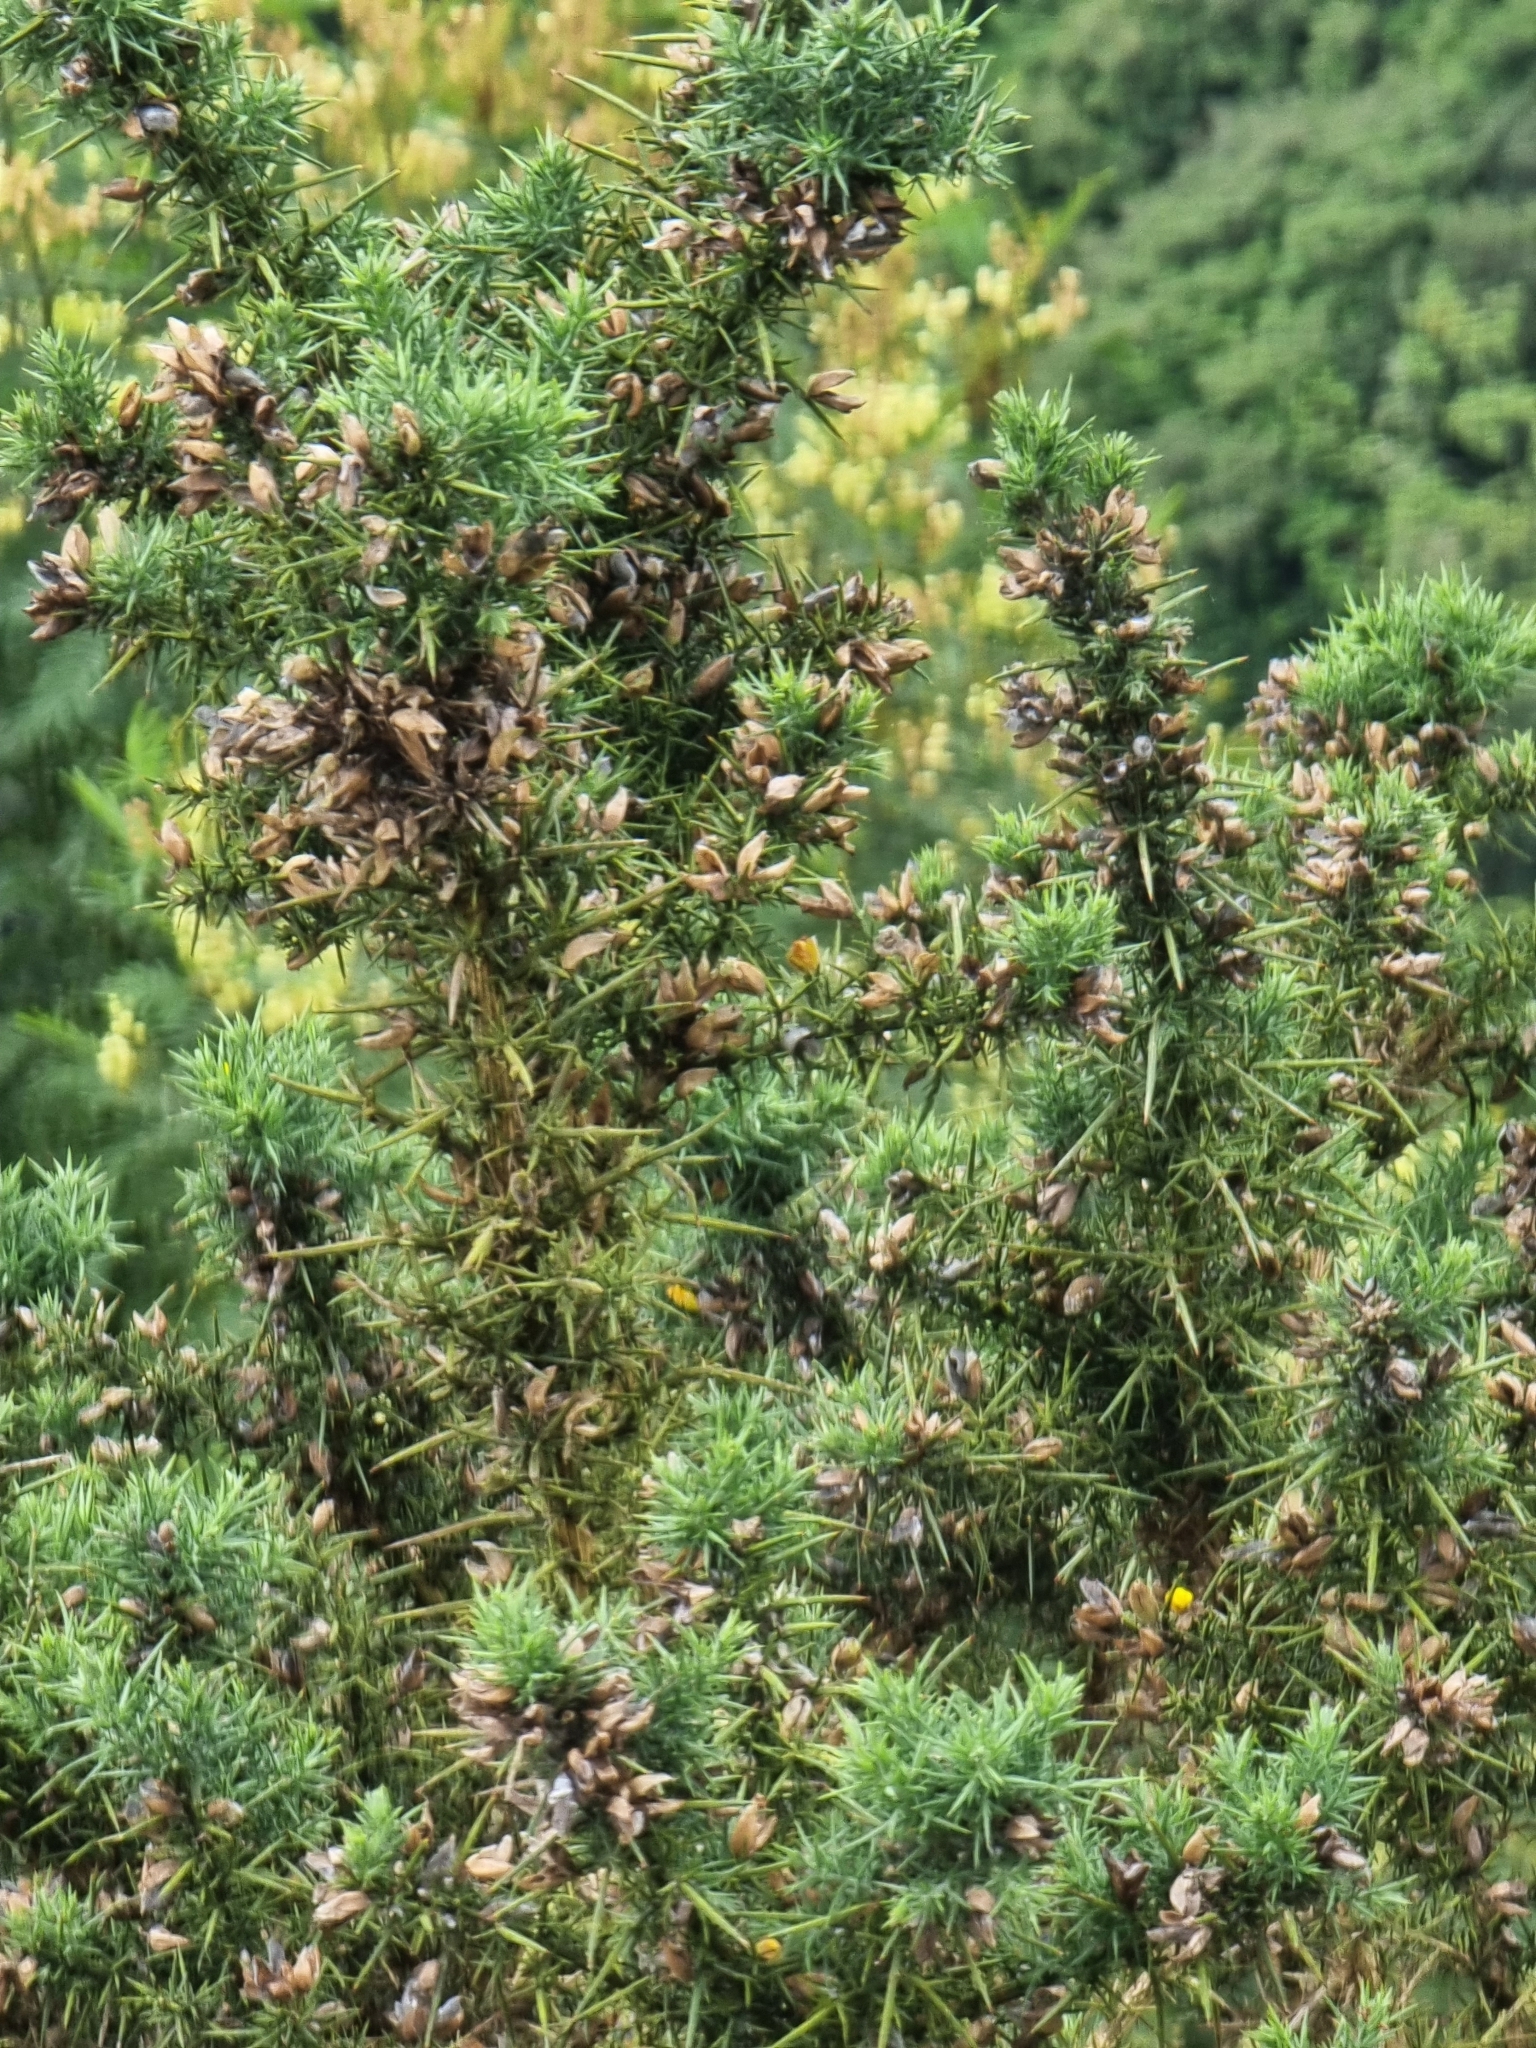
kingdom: Plantae
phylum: Tracheophyta
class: Magnoliopsida
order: Fabales
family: Fabaceae
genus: Ulex
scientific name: Ulex europaeus
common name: Common gorse
